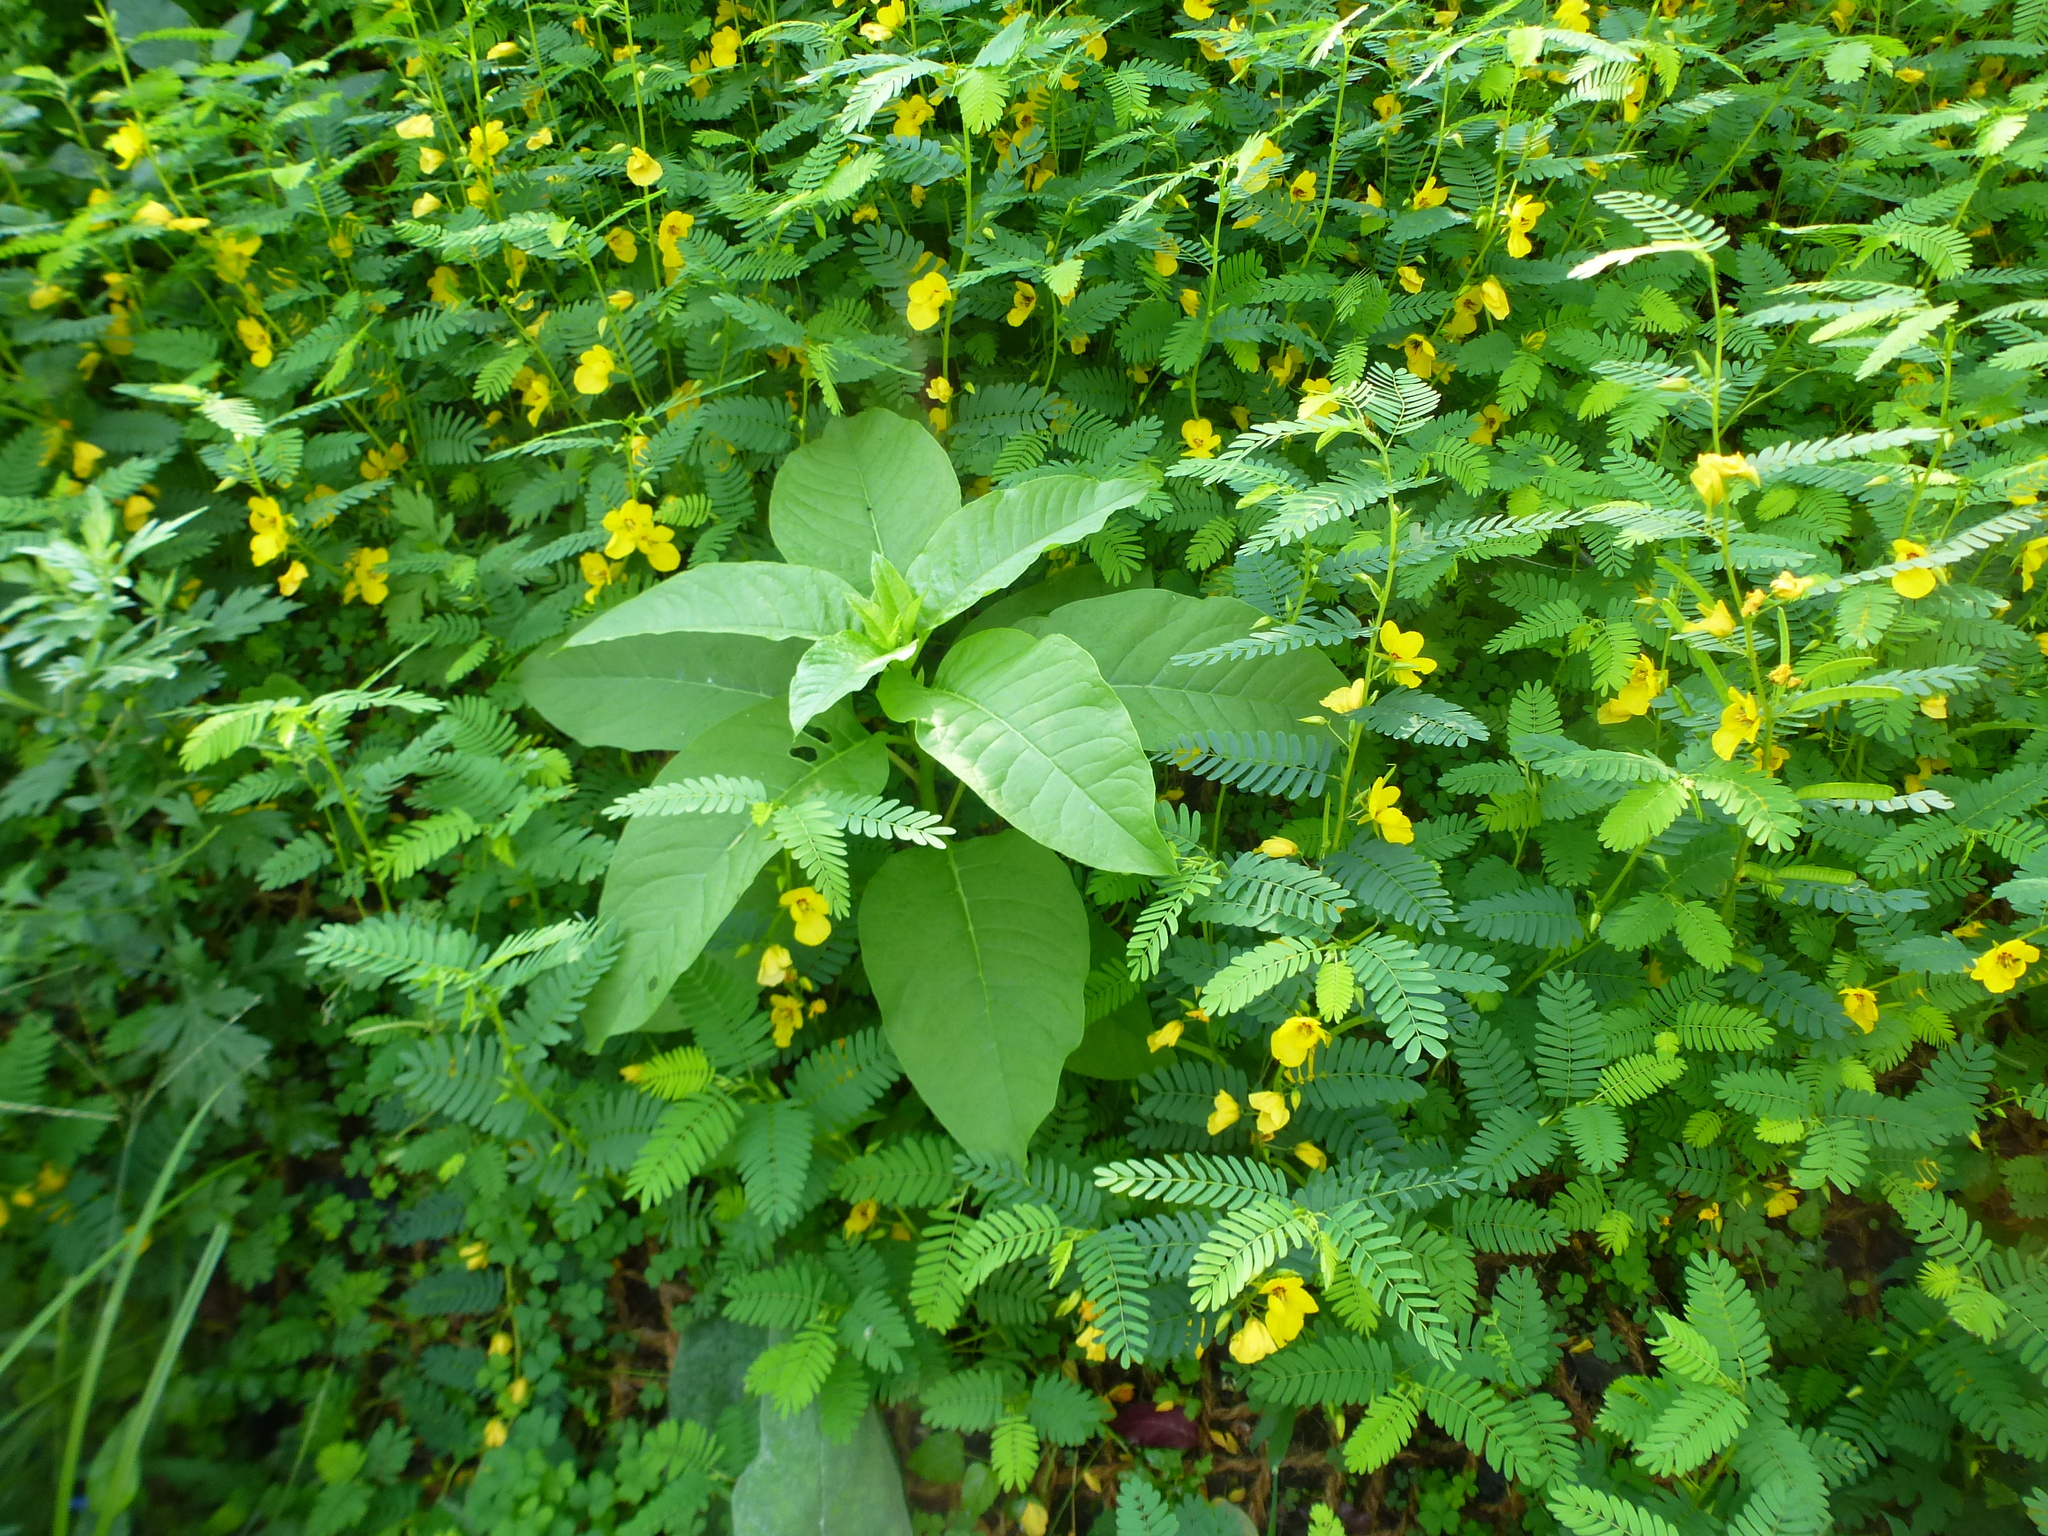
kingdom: Plantae
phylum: Tracheophyta
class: Magnoliopsida
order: Caryophyllales
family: Phytolaccaceae
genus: Phytolacca
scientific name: Phytolacca americana
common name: American pokeweed
